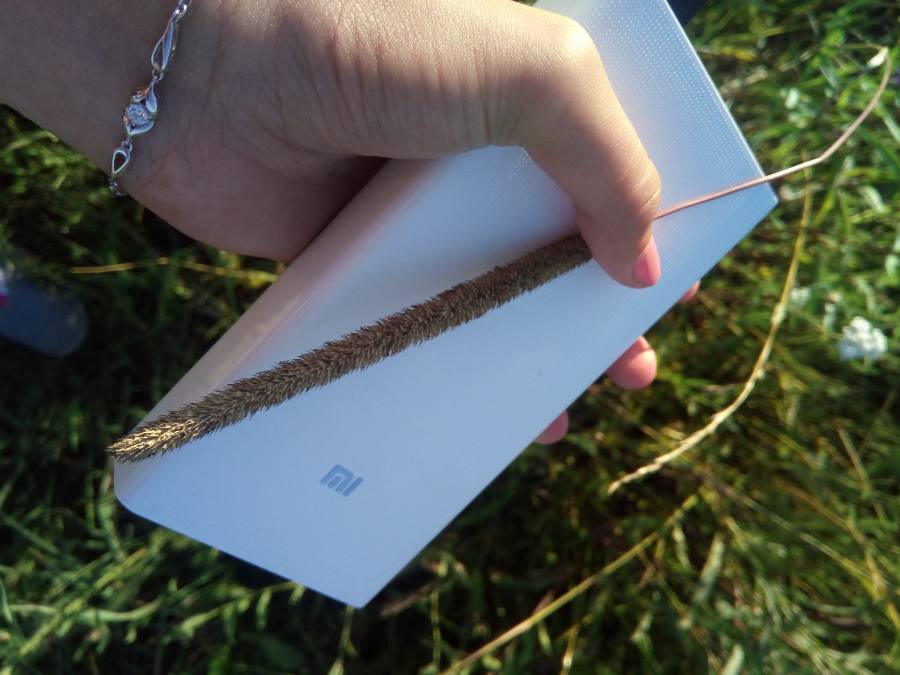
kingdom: Plantae
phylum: Tracheophyta
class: Liliopsida
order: Poales
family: Poaceae
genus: Phleum
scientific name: Phleum pratense
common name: Timothy grass
